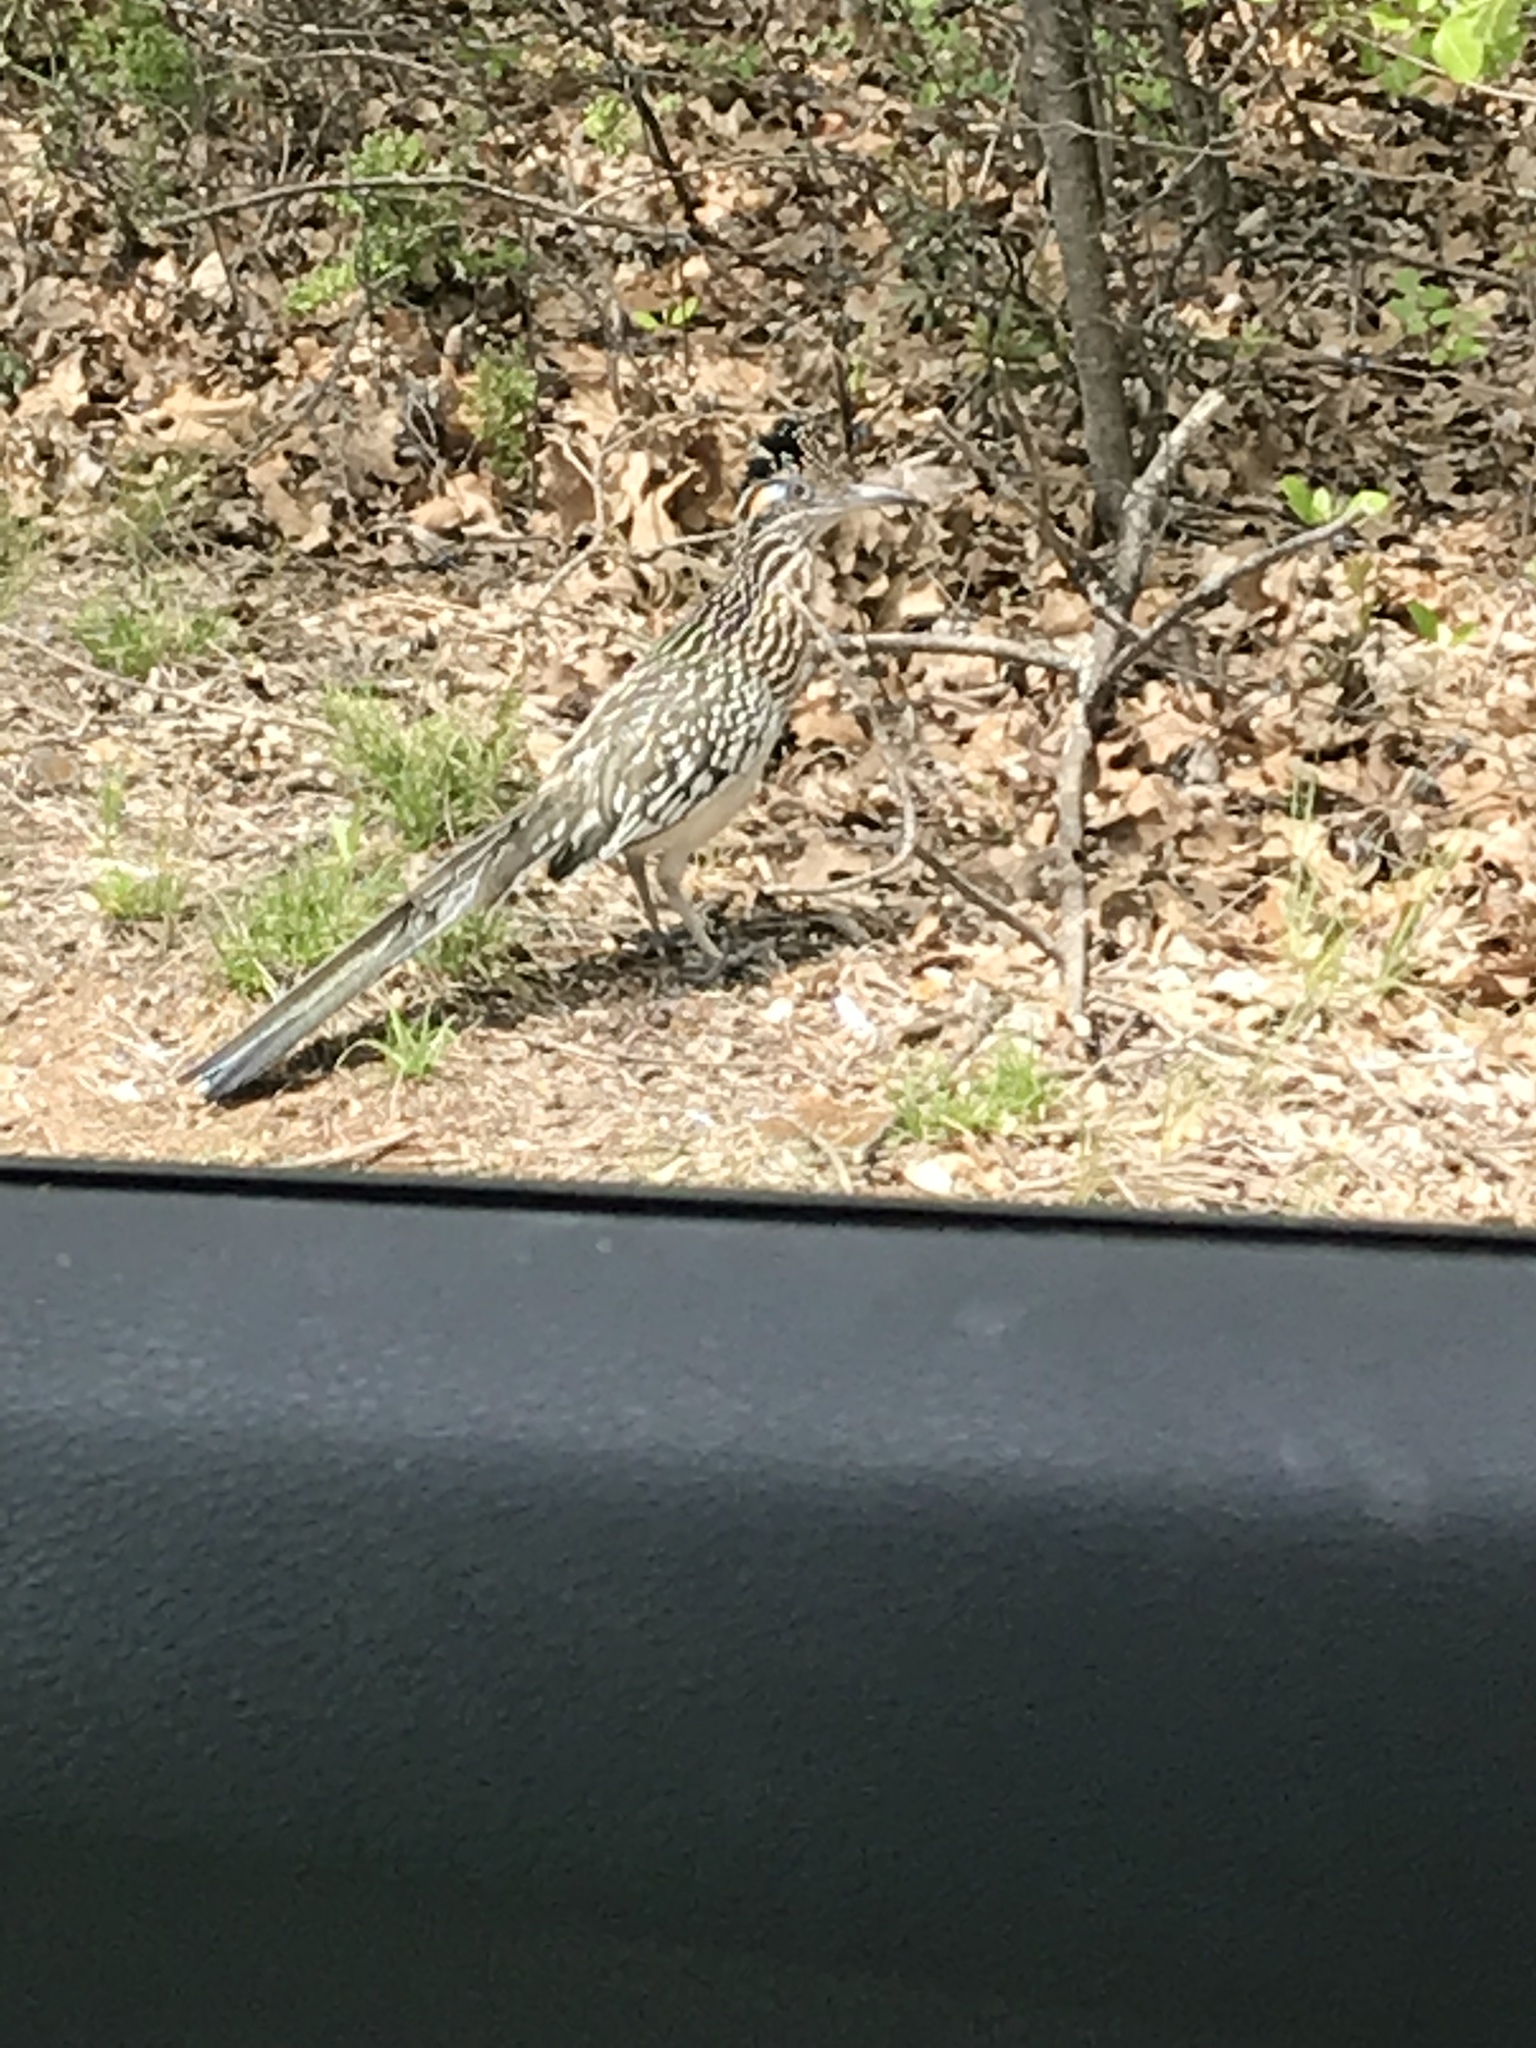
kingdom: Animalia
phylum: Chordata
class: Aves
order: Cuculiformes
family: Cuculidae
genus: Geococcyx
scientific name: Geococcyx californianus
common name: Greater roadrunner
